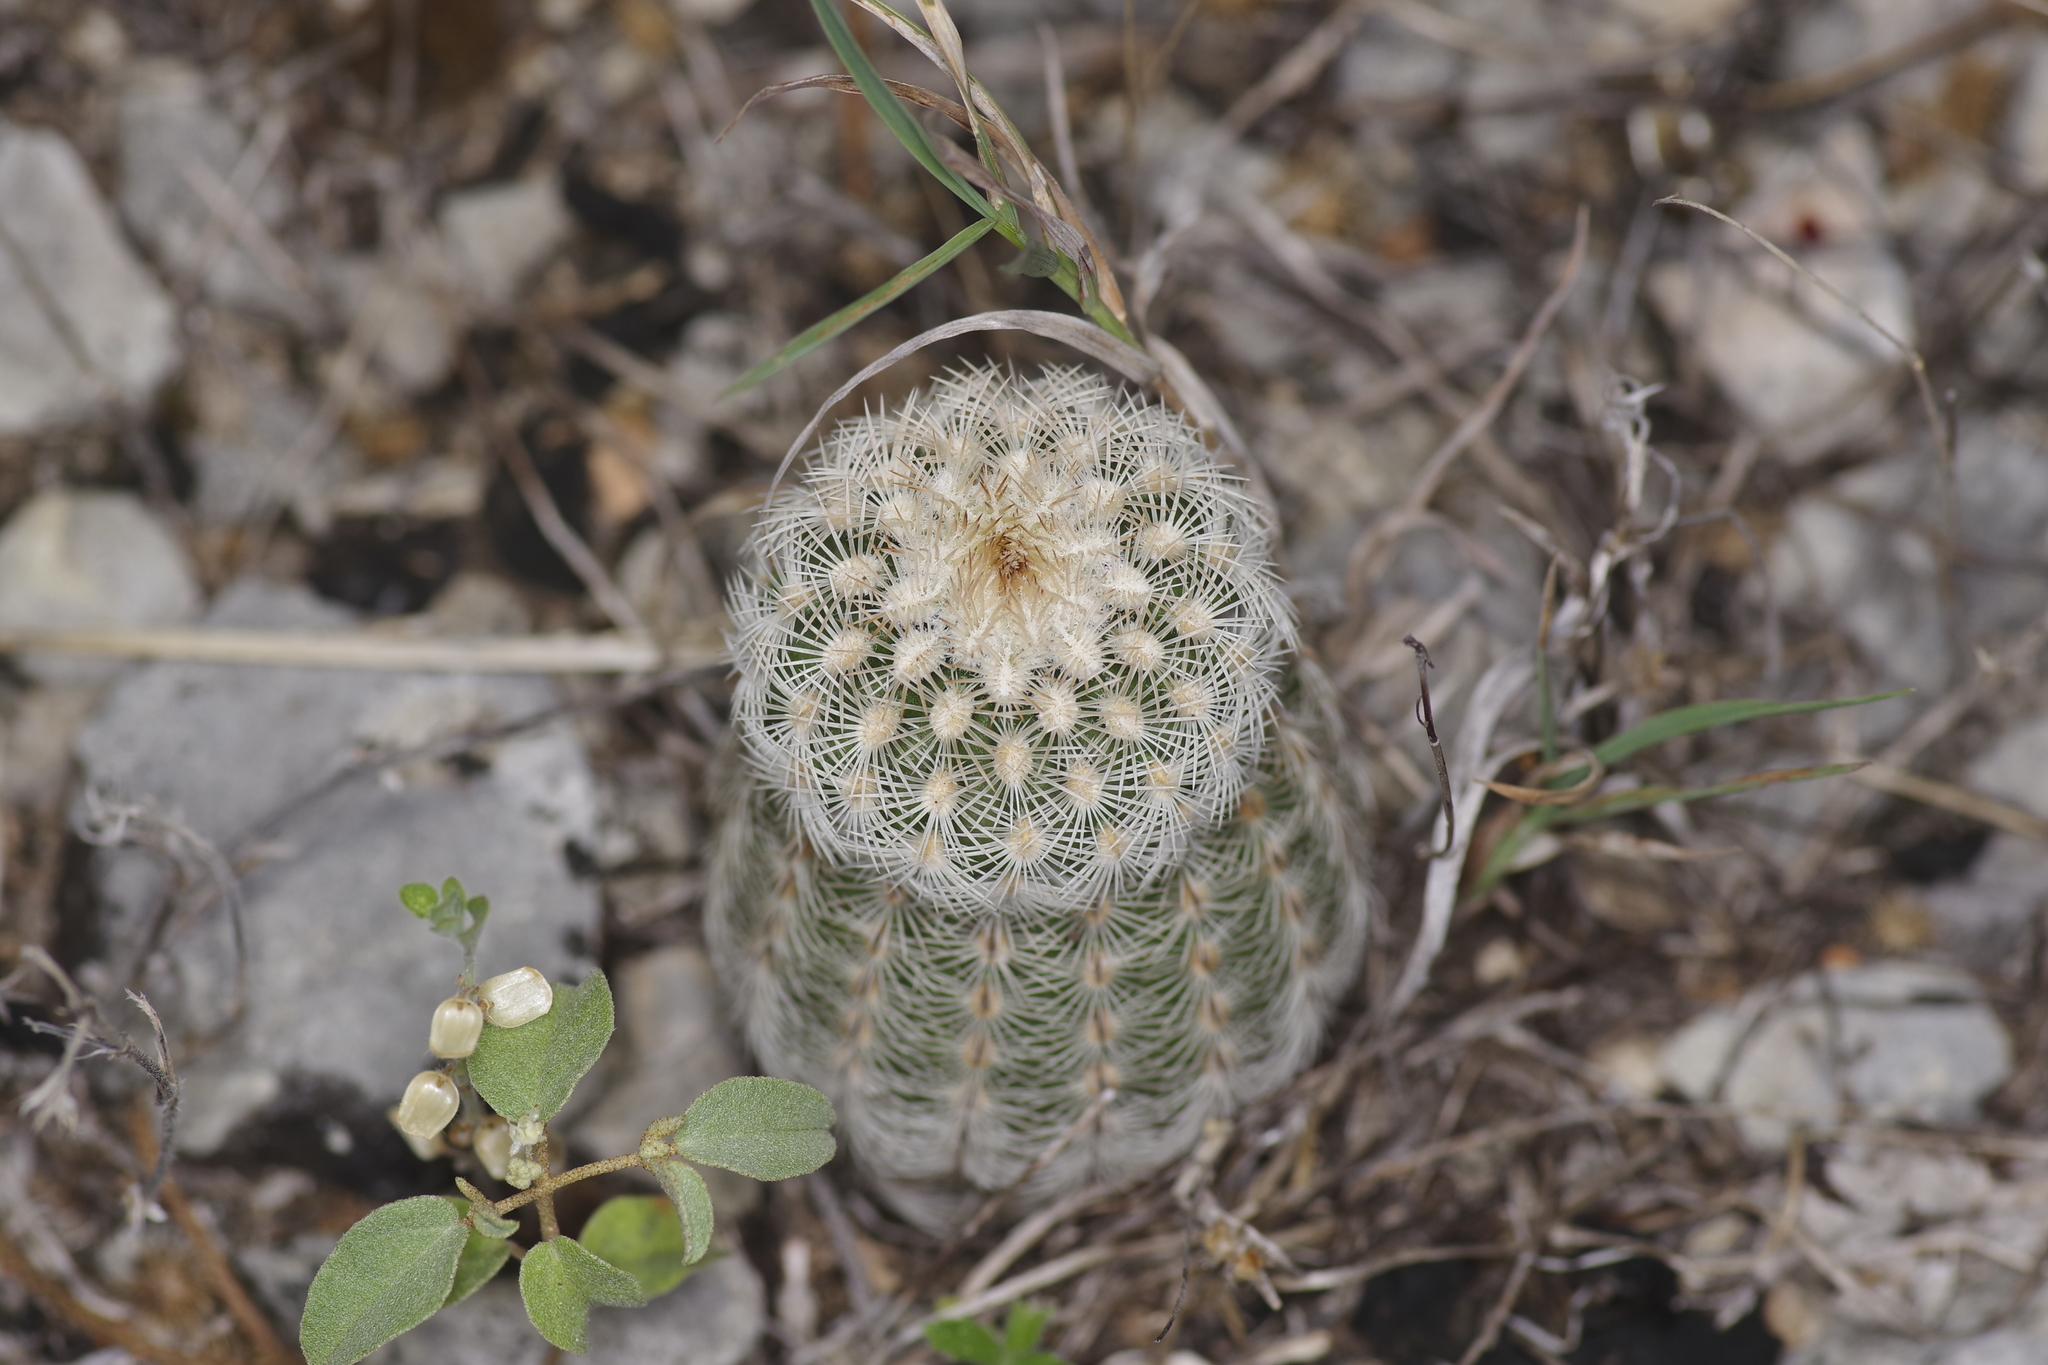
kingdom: Plantae
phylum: Tracheophyta
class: Magnoliopsida
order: Caryophyllales
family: Cactaceae
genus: Echinocereus
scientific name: Echinocereus reichenbachii
